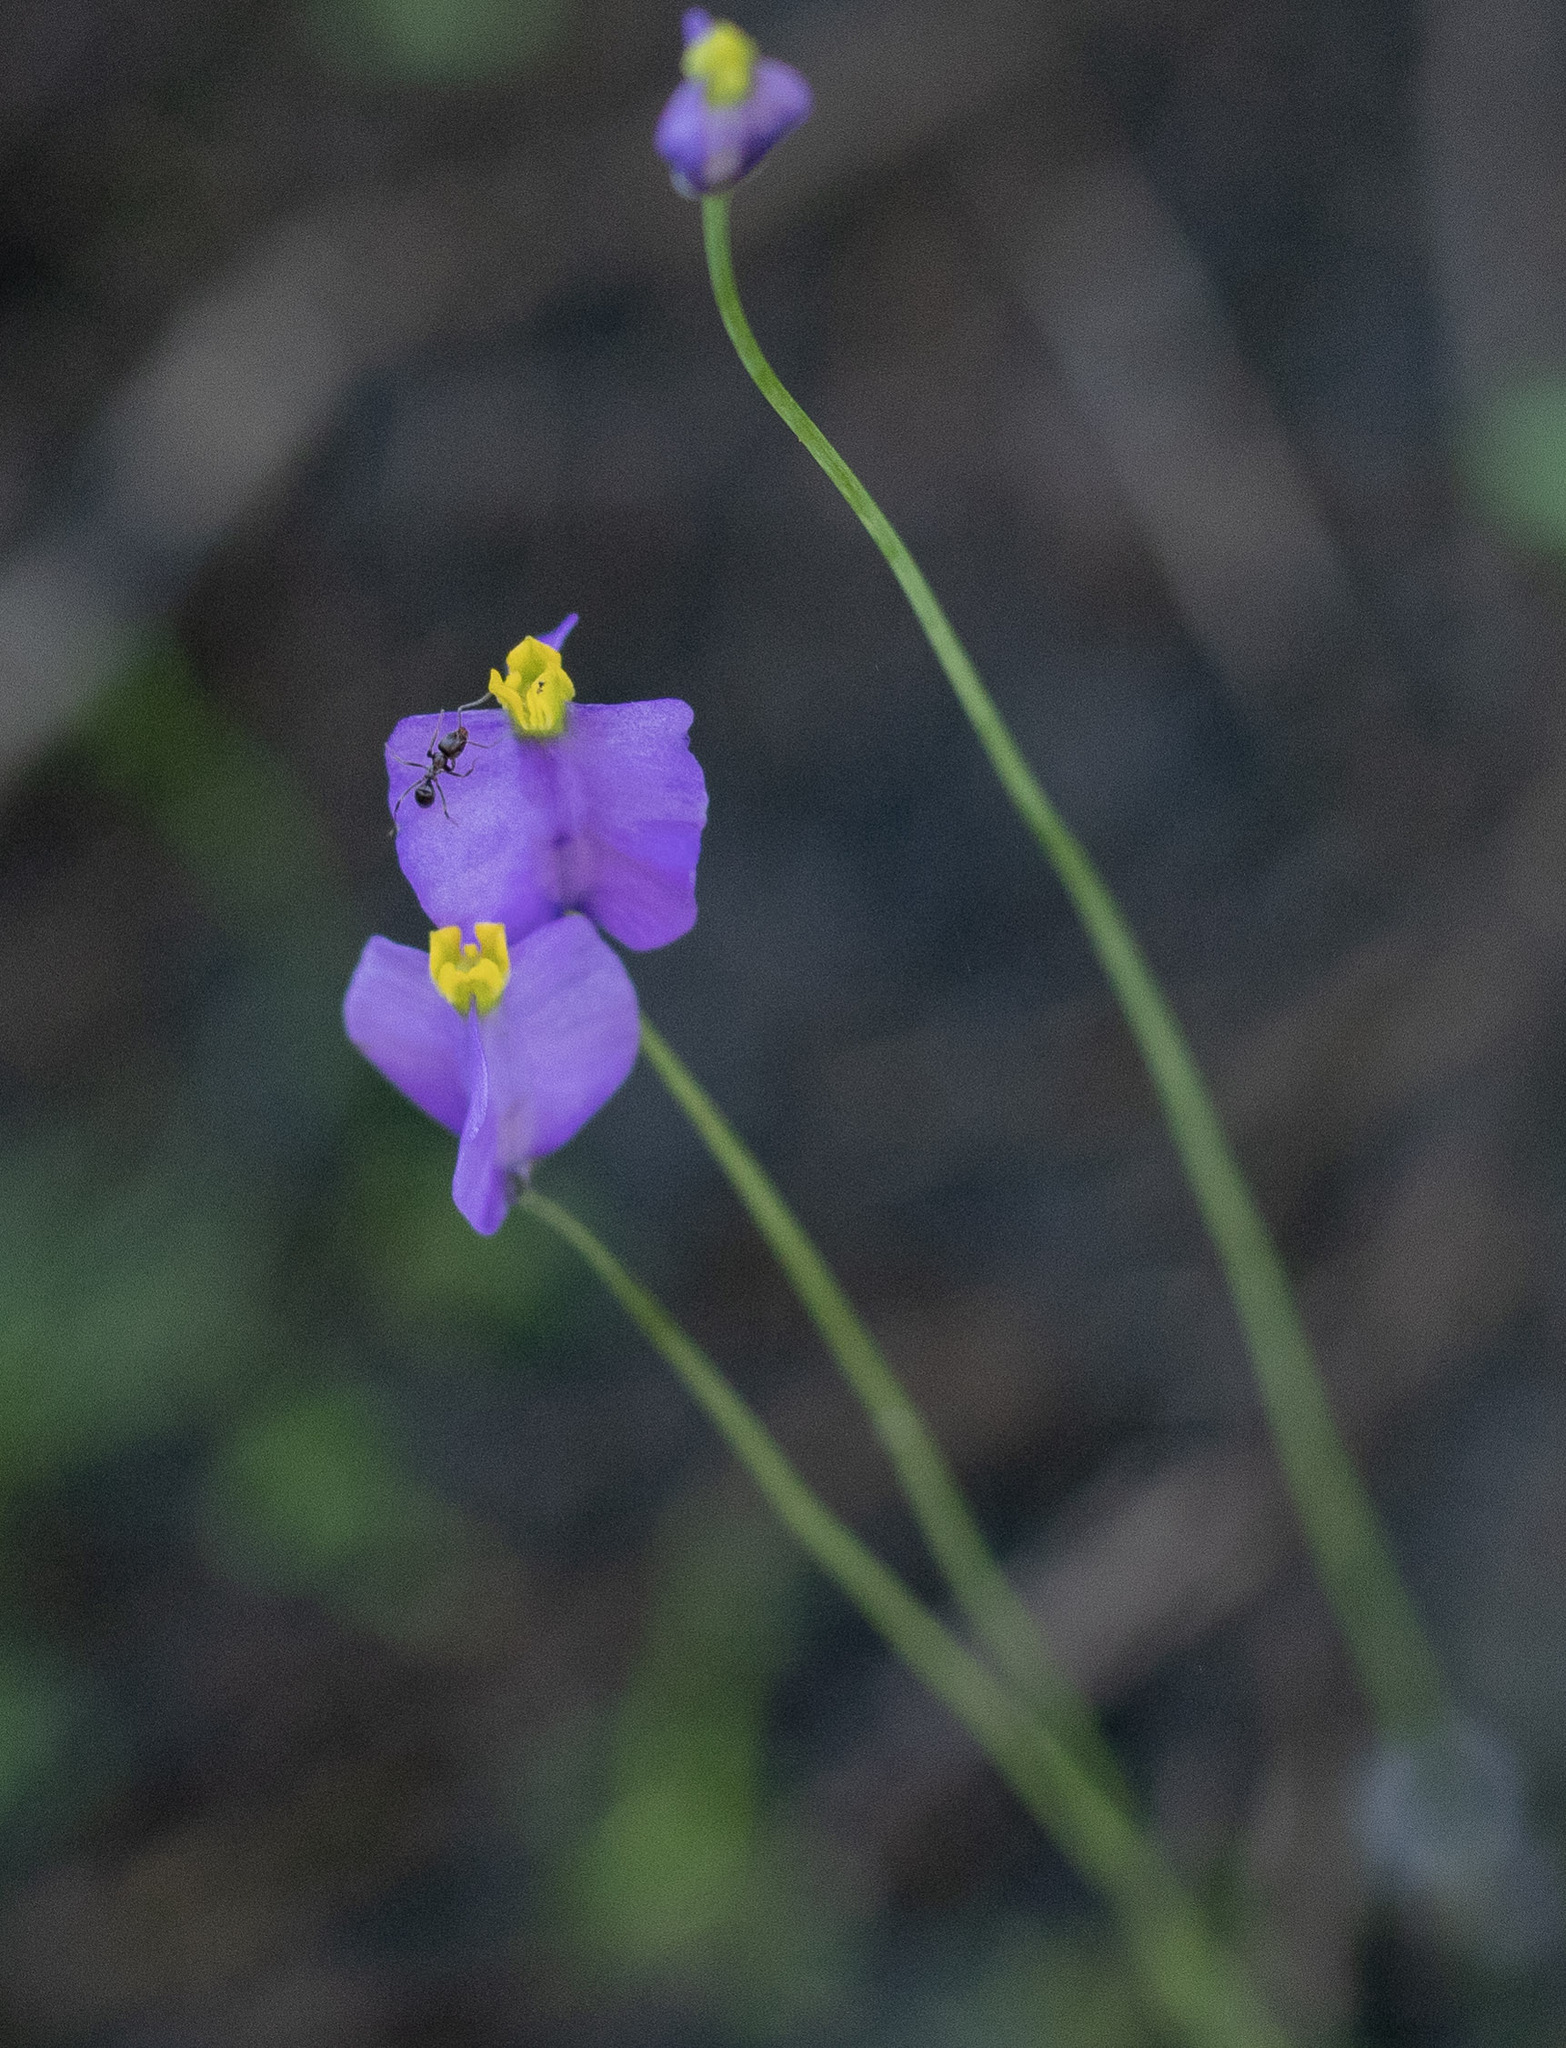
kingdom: Plantae
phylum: Tracheophyta
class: Liliopsida
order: Dioscoreales
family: Burmanniaceae
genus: Burmannia
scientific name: Burmannia bicolor
